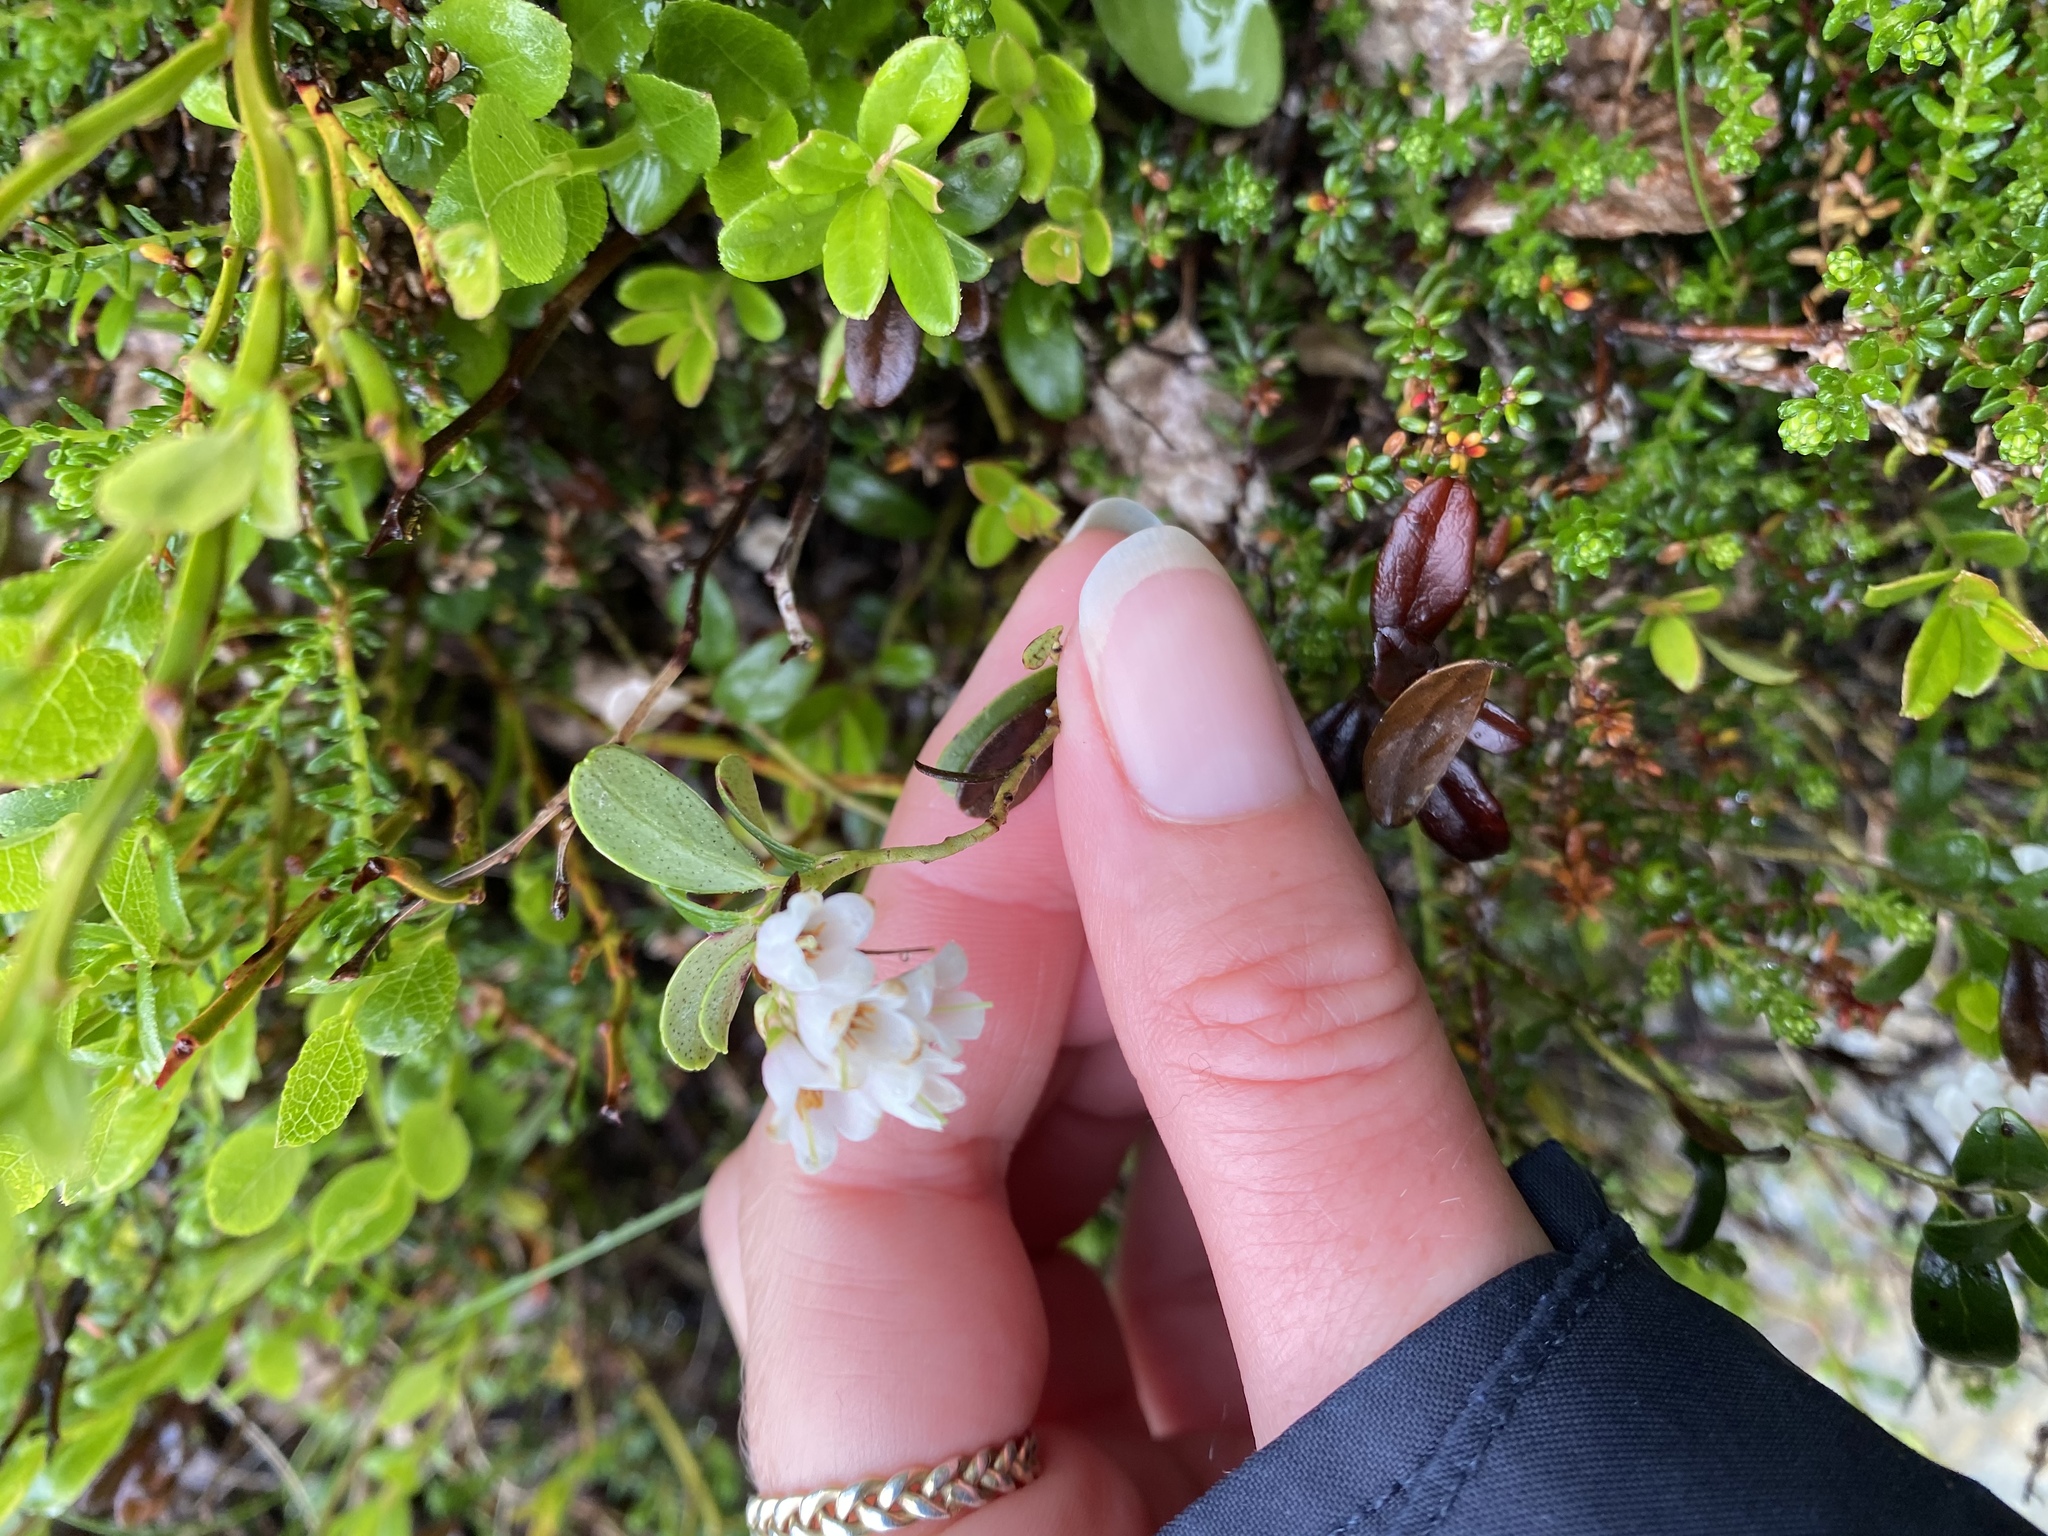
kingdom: Plantae
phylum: Tracheophyta
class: Magnoliopsida
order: Ericales
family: Ericaceae
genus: Vaccinium
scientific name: Vaccinium vitis-idaea
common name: Cowberry
